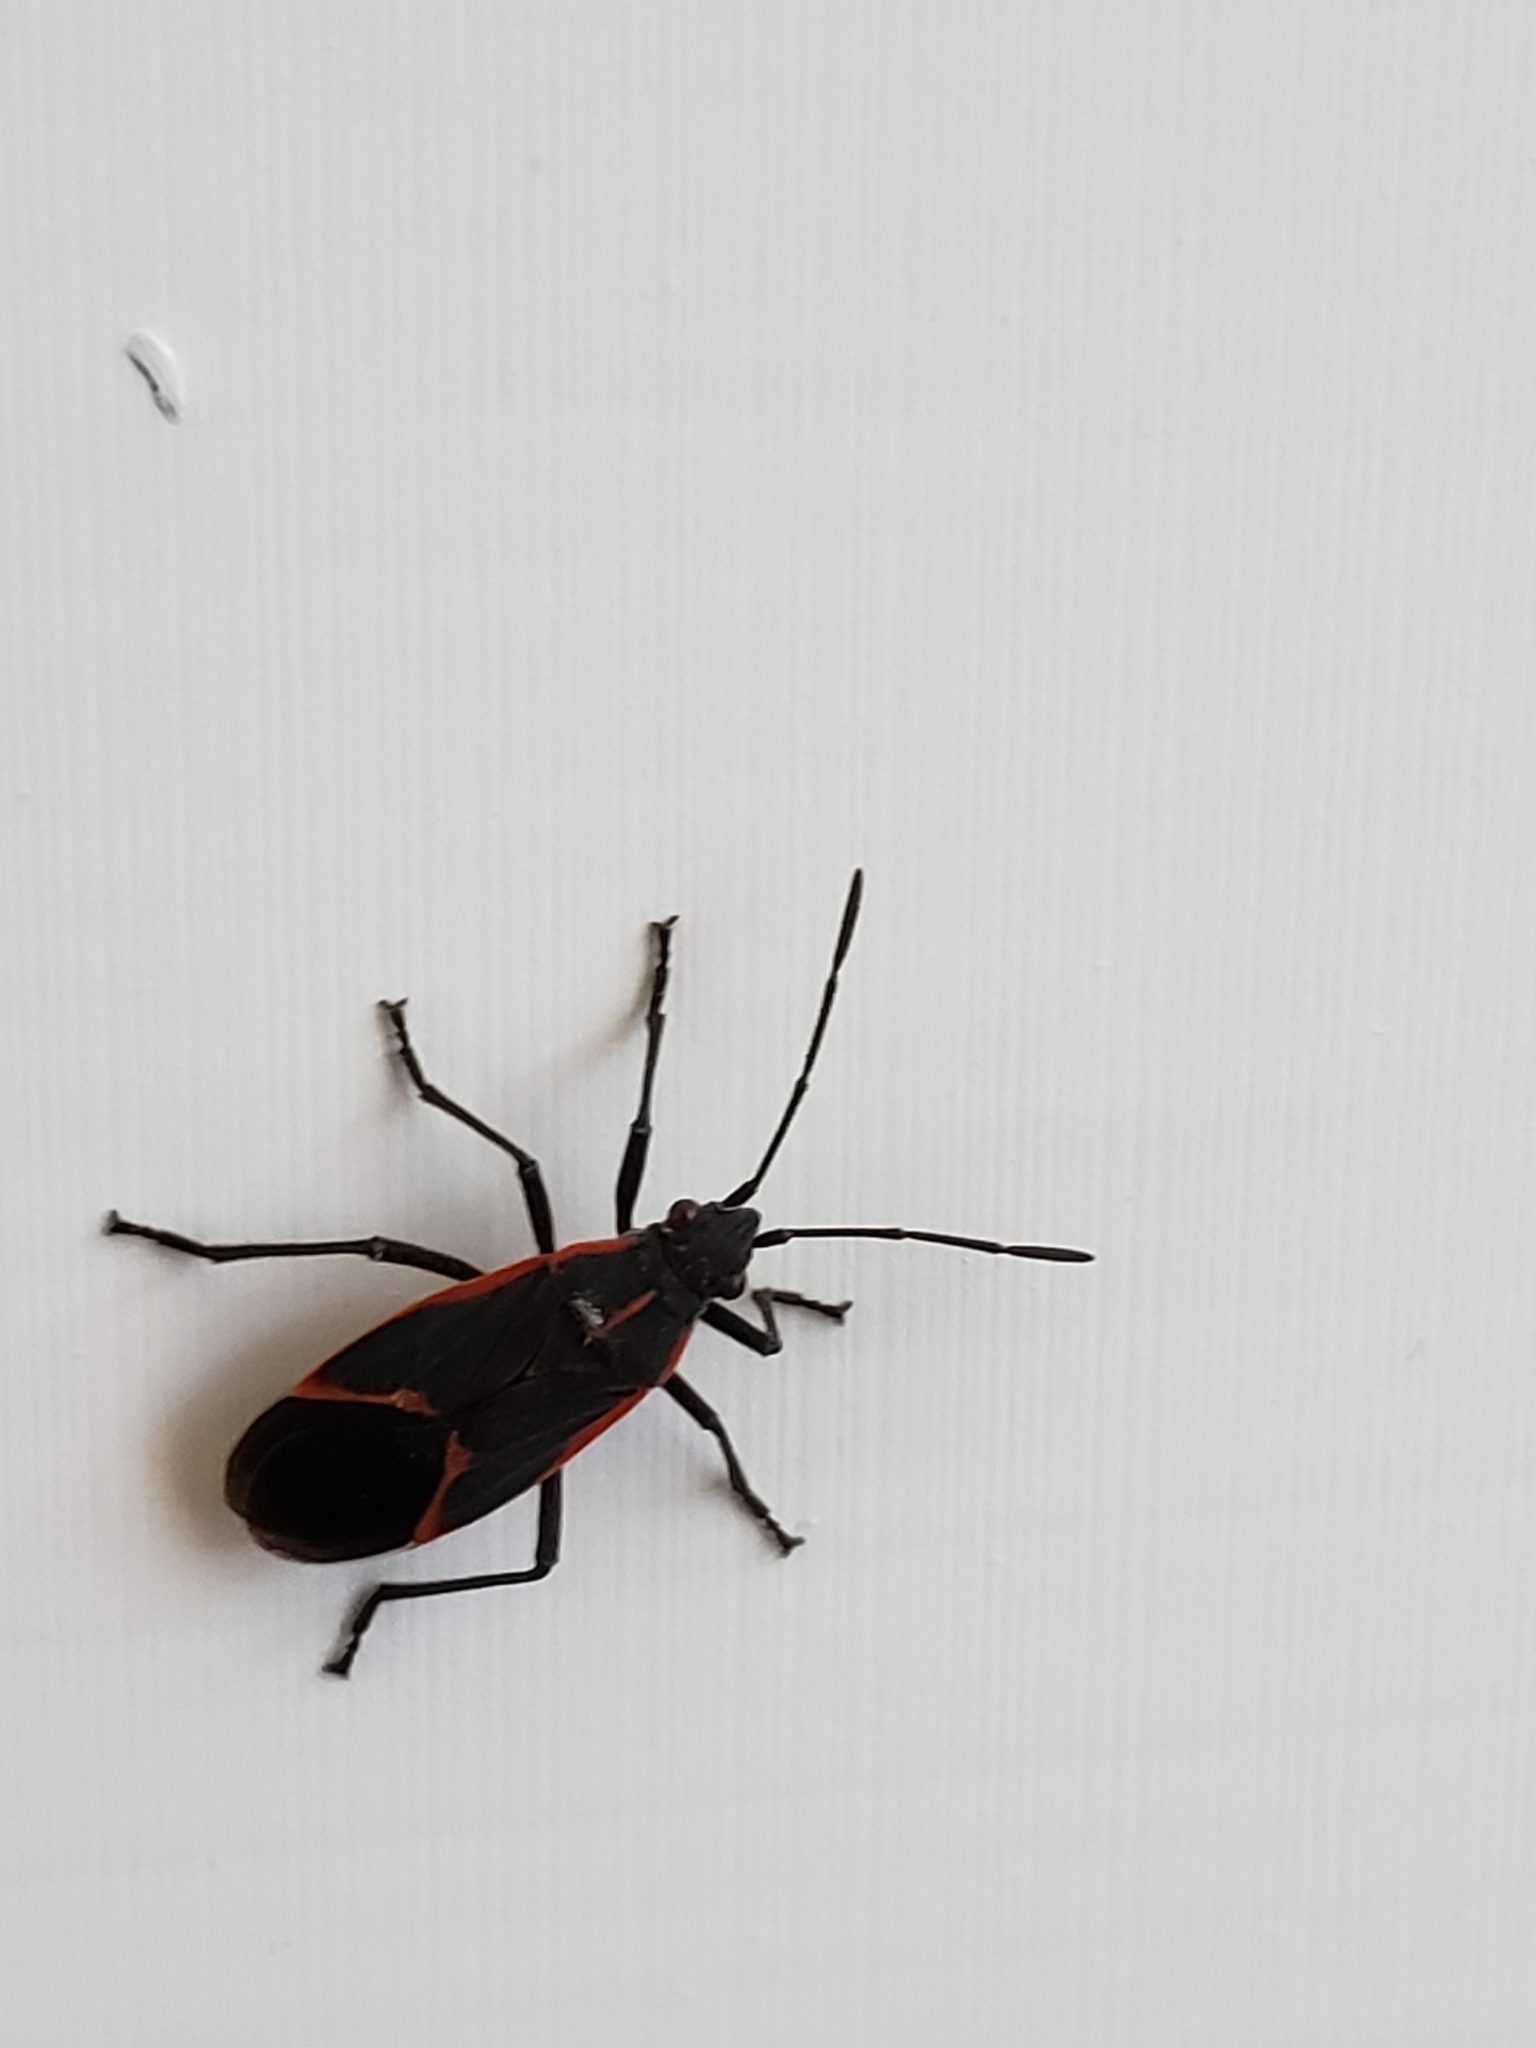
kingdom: Animalia
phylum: Arthropoda
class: Insecta
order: Hemiptera
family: Rhopalidae
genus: Boisea
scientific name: Boisea trivittata
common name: Boxelder bug
